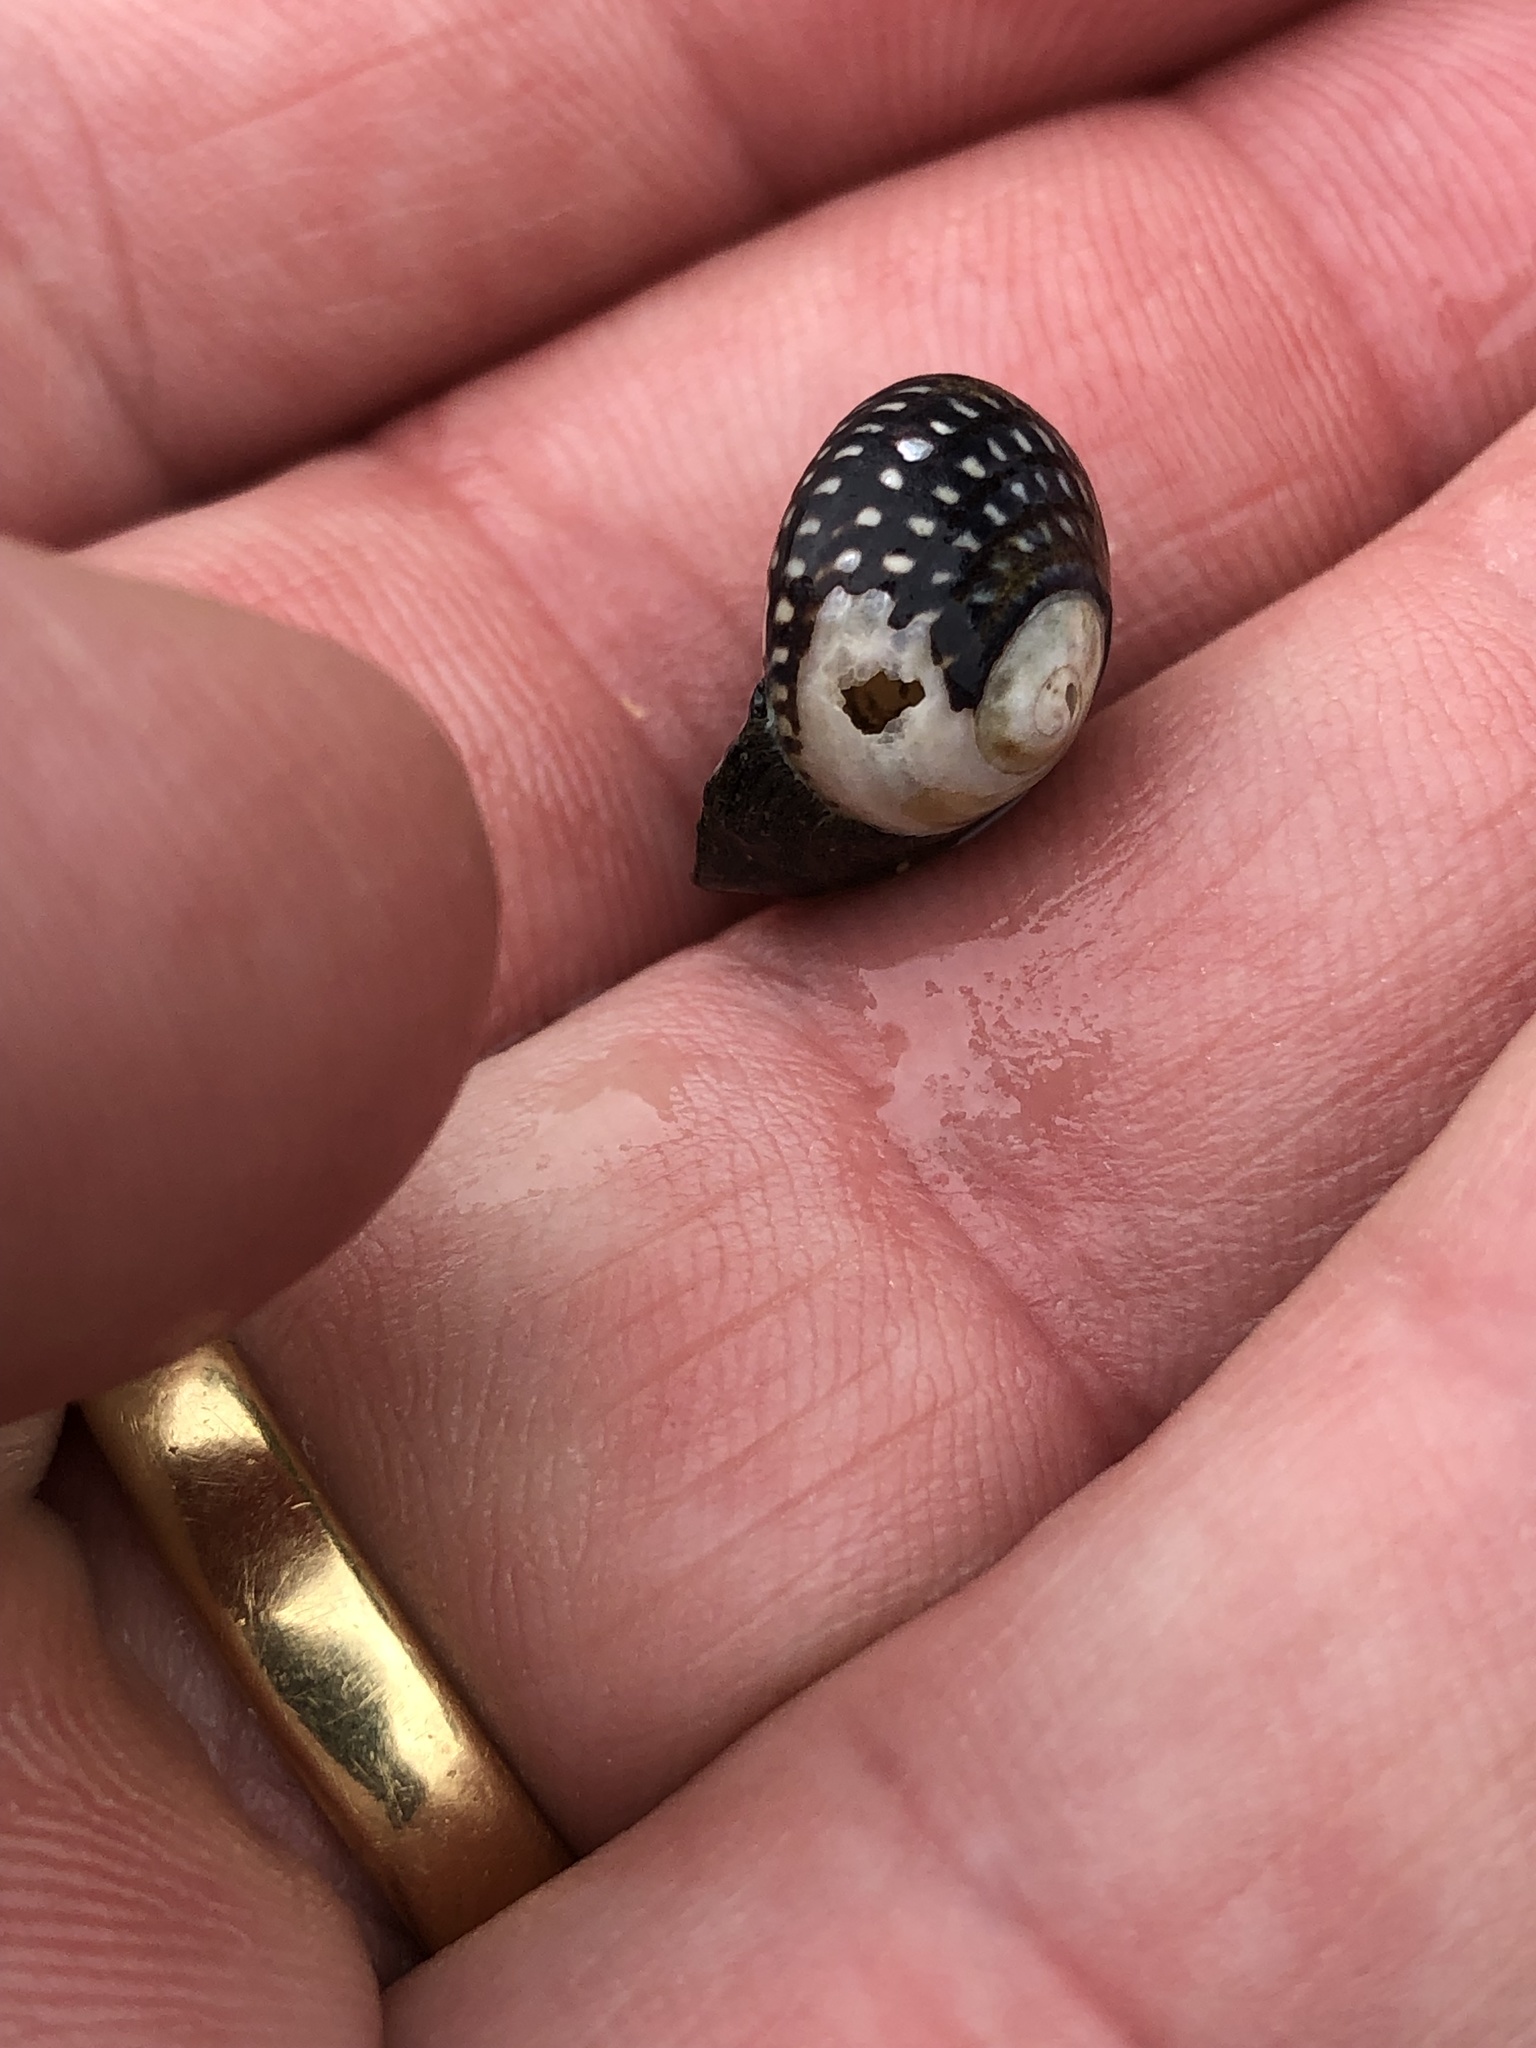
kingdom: Animalia
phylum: Mollusca
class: Gastropoda
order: Trochida
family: Trochidae
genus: Diloma
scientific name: Diloma aethiops
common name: Scorched monodont
